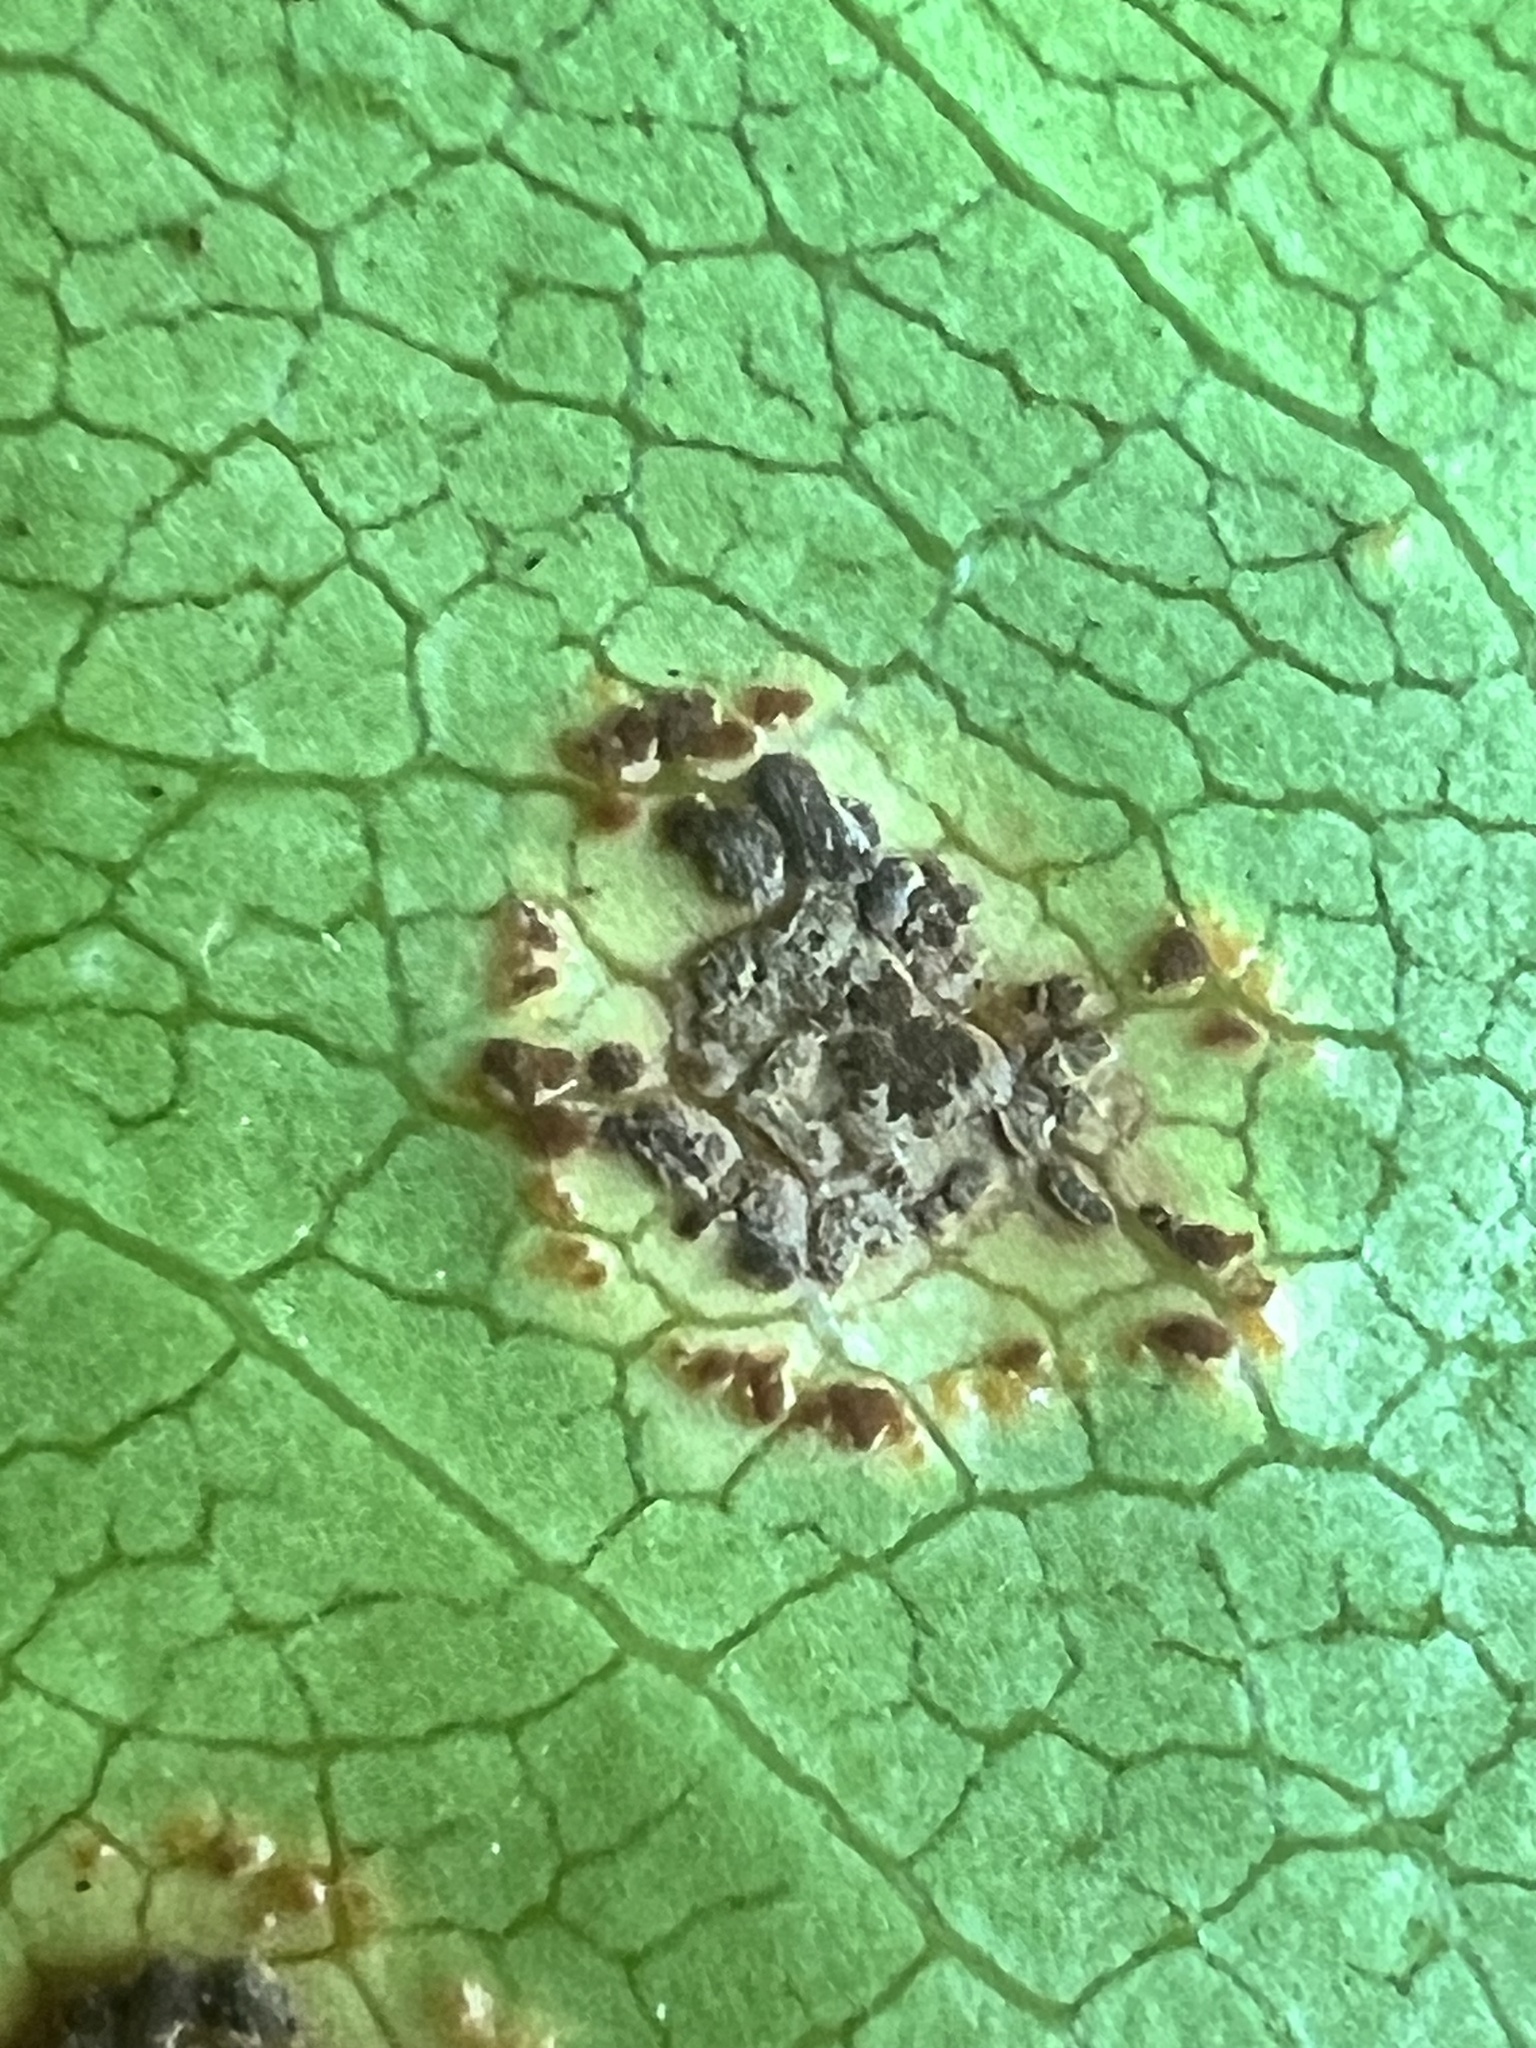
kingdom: Fungi
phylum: Basidiomycota
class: Pucciniomycetes
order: Pucciniales
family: Pucciniaceae
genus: Puccinia
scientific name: Puccinia coprosmae
